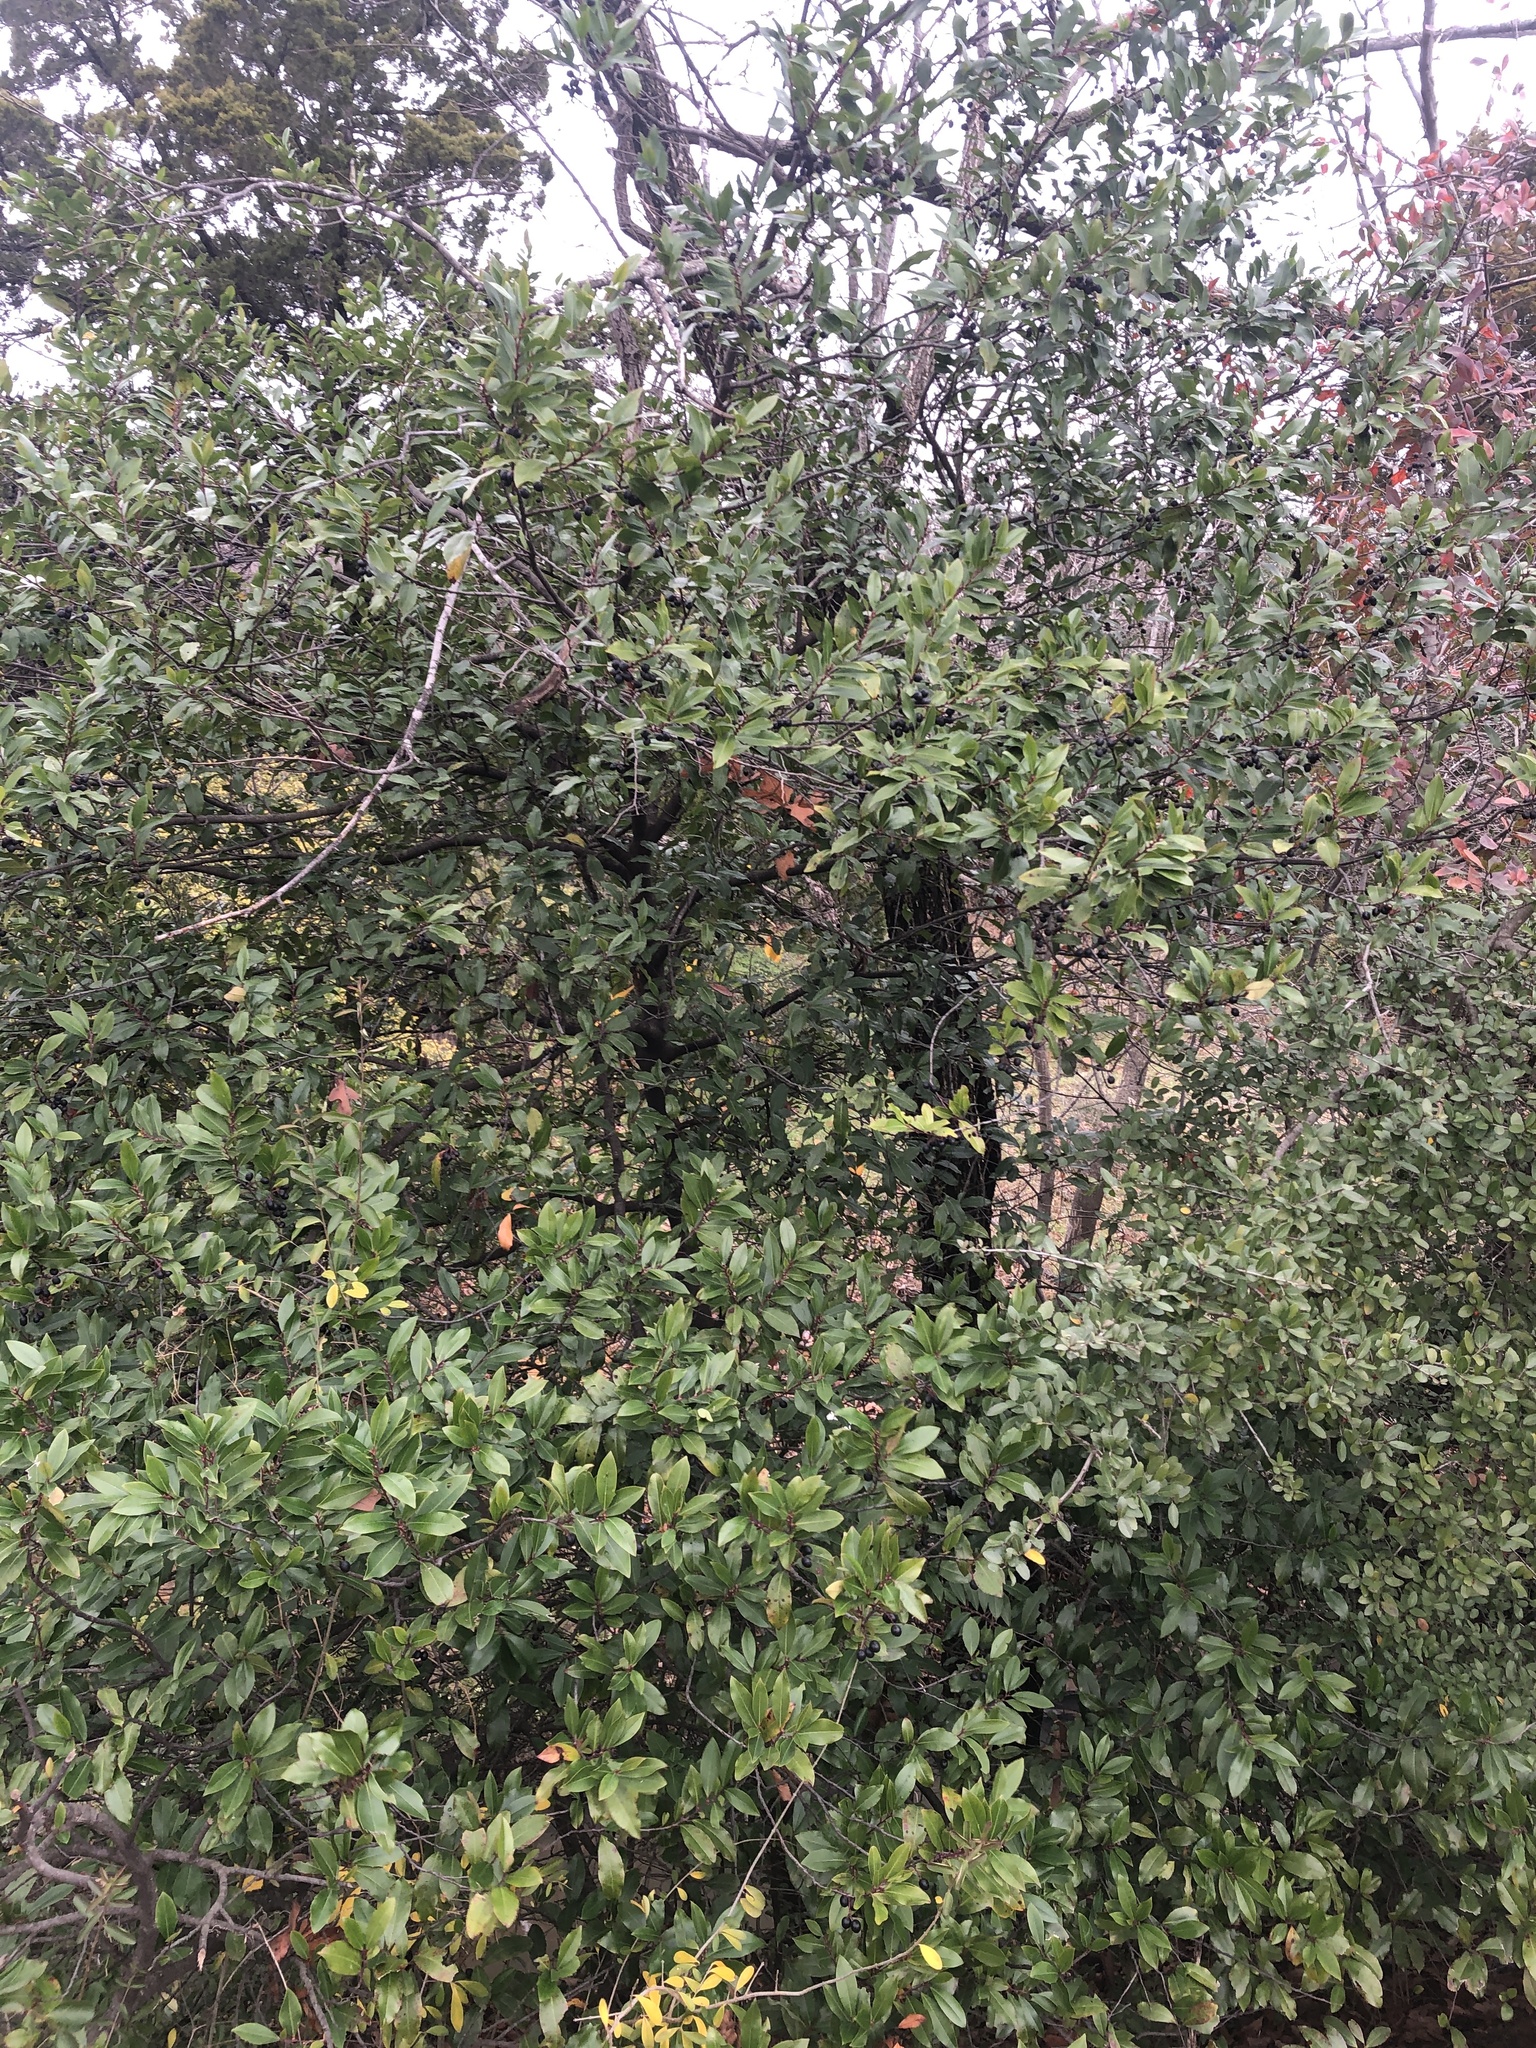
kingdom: Plantae
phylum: Tracheophyta
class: Magnoliopsida
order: Rosales
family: Rosaceae
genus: Prunus
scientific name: Prunus caroliniana
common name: Carolina laurel cherry
